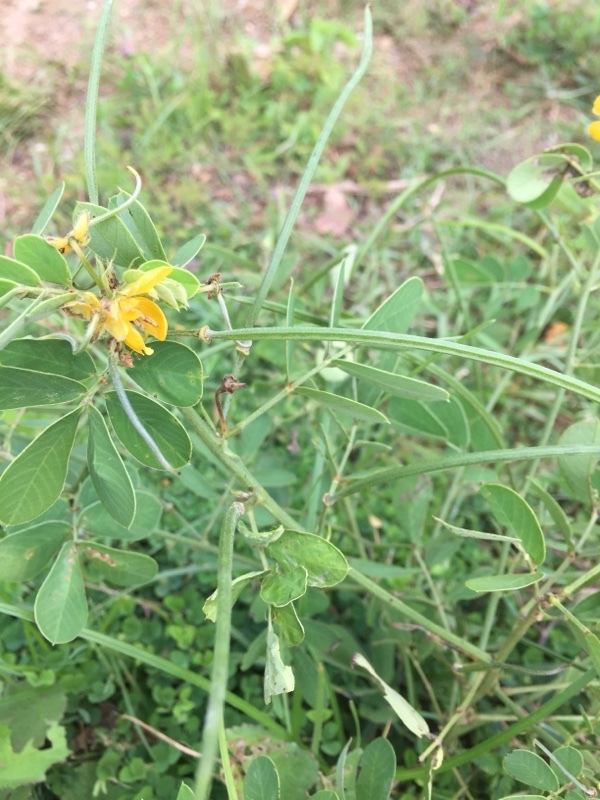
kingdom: Plantae
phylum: Tracheophyta
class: Magnoliopsida
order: Fabales
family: Fabaceae
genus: Senna
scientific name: Senna obtusifolia
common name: Java-bean
